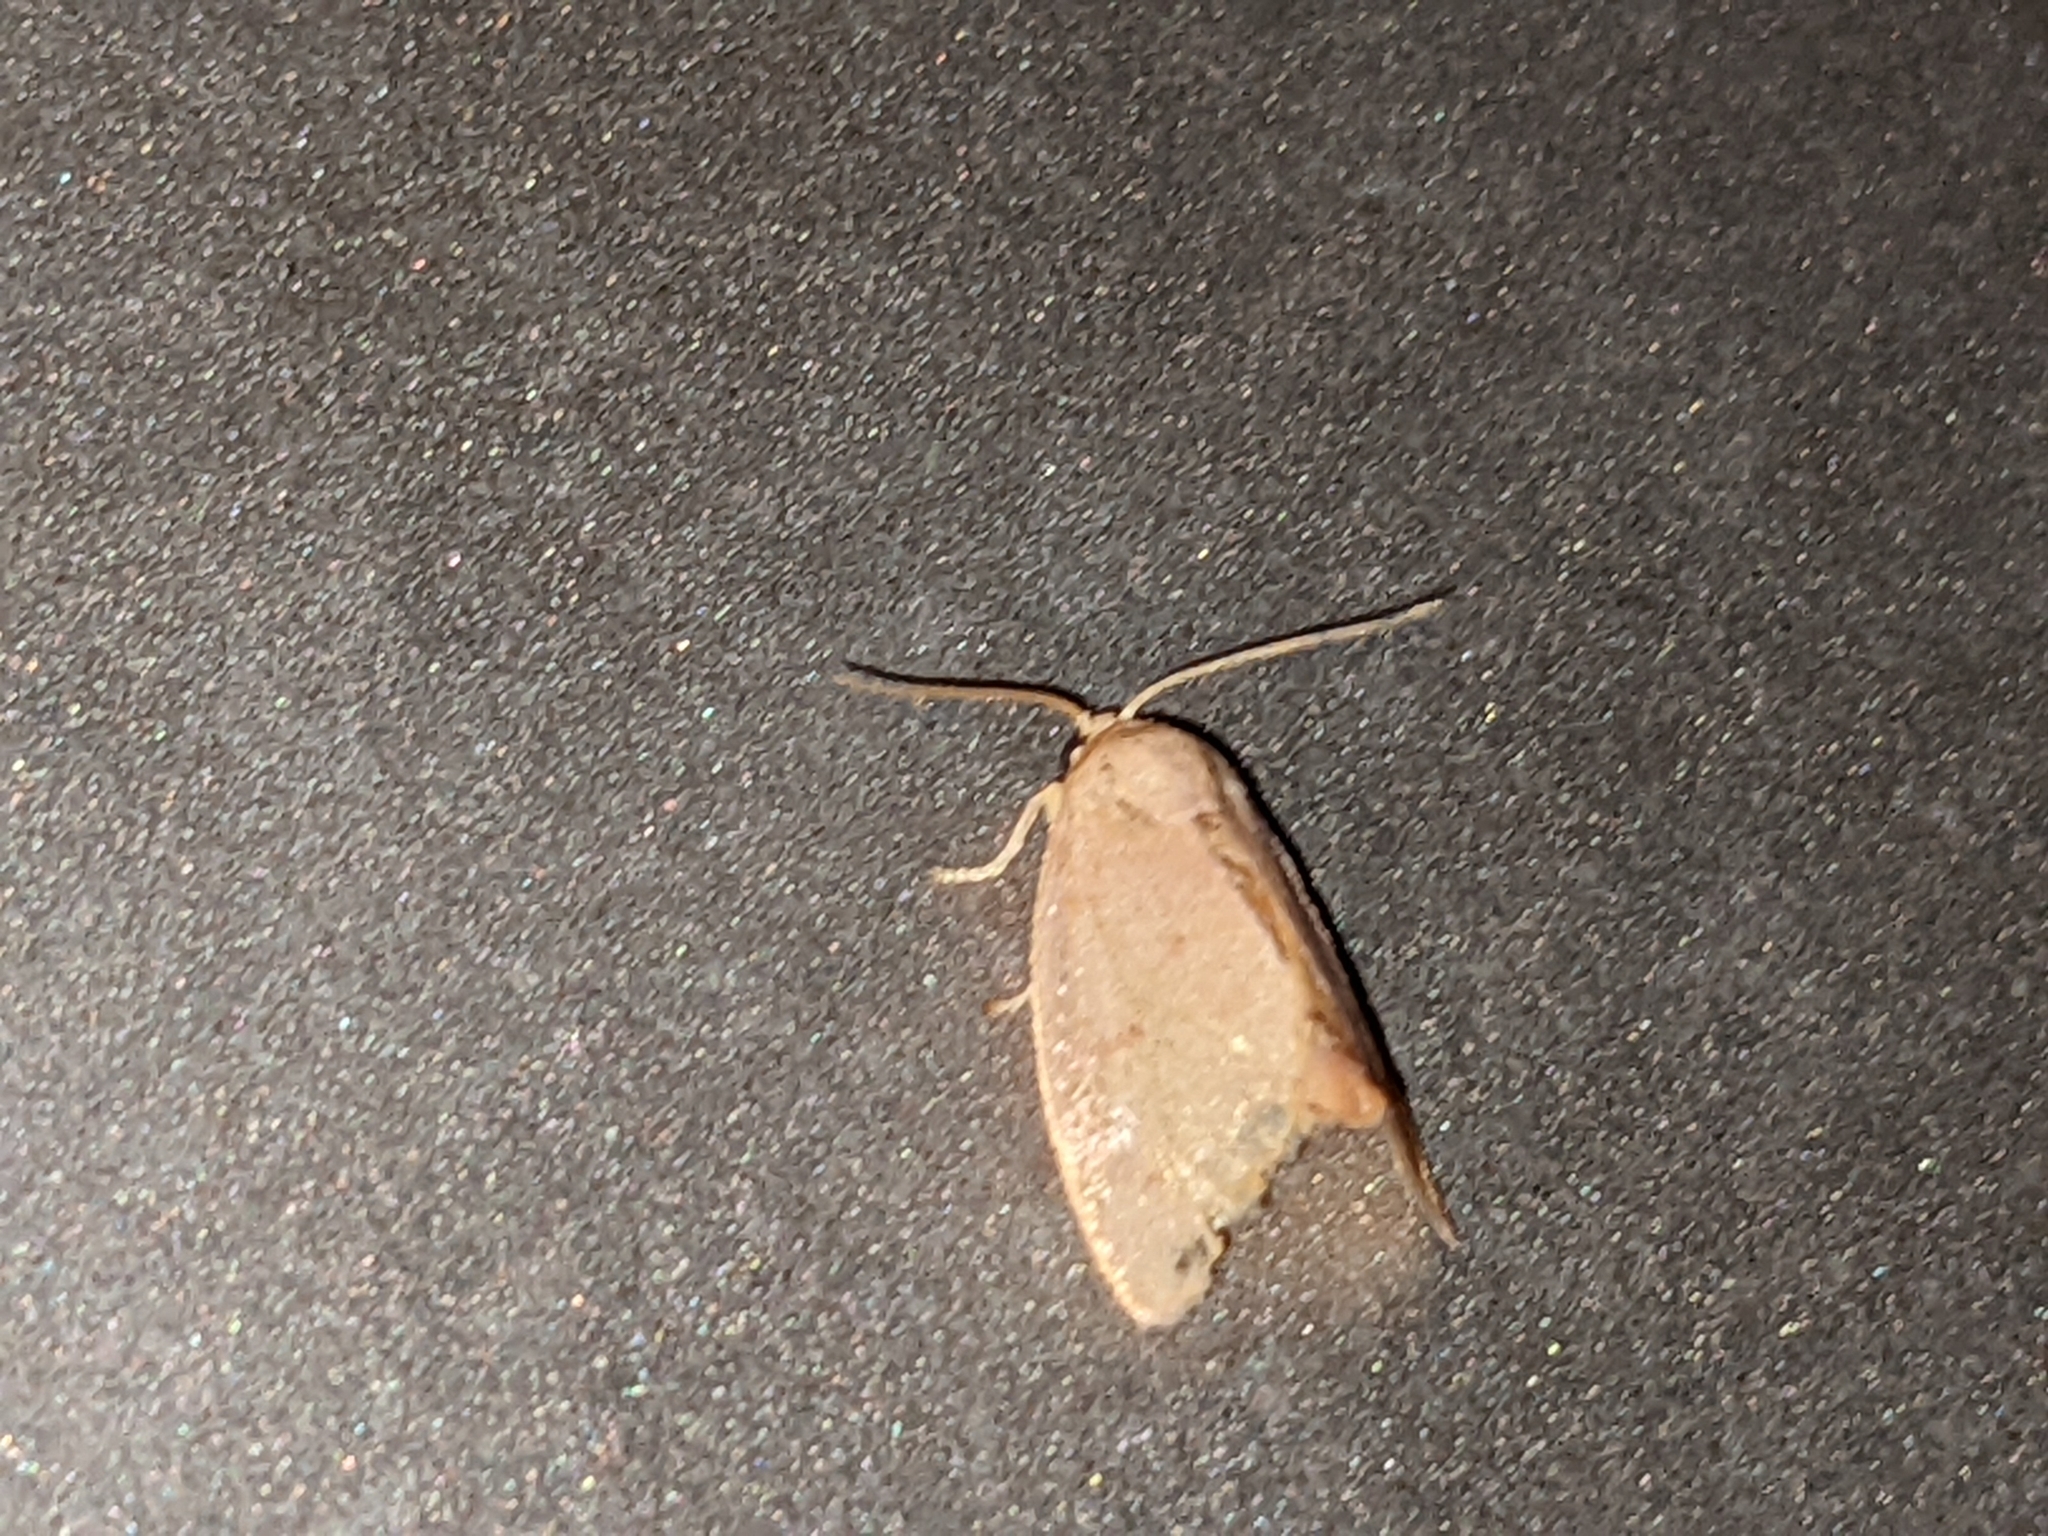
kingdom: Animalia
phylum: Arthropoda
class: Insecta
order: Lepidoptera
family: Limacodidae
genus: Tortricidia
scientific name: Tortricidia pallida
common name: Red-crossed button slug moth
